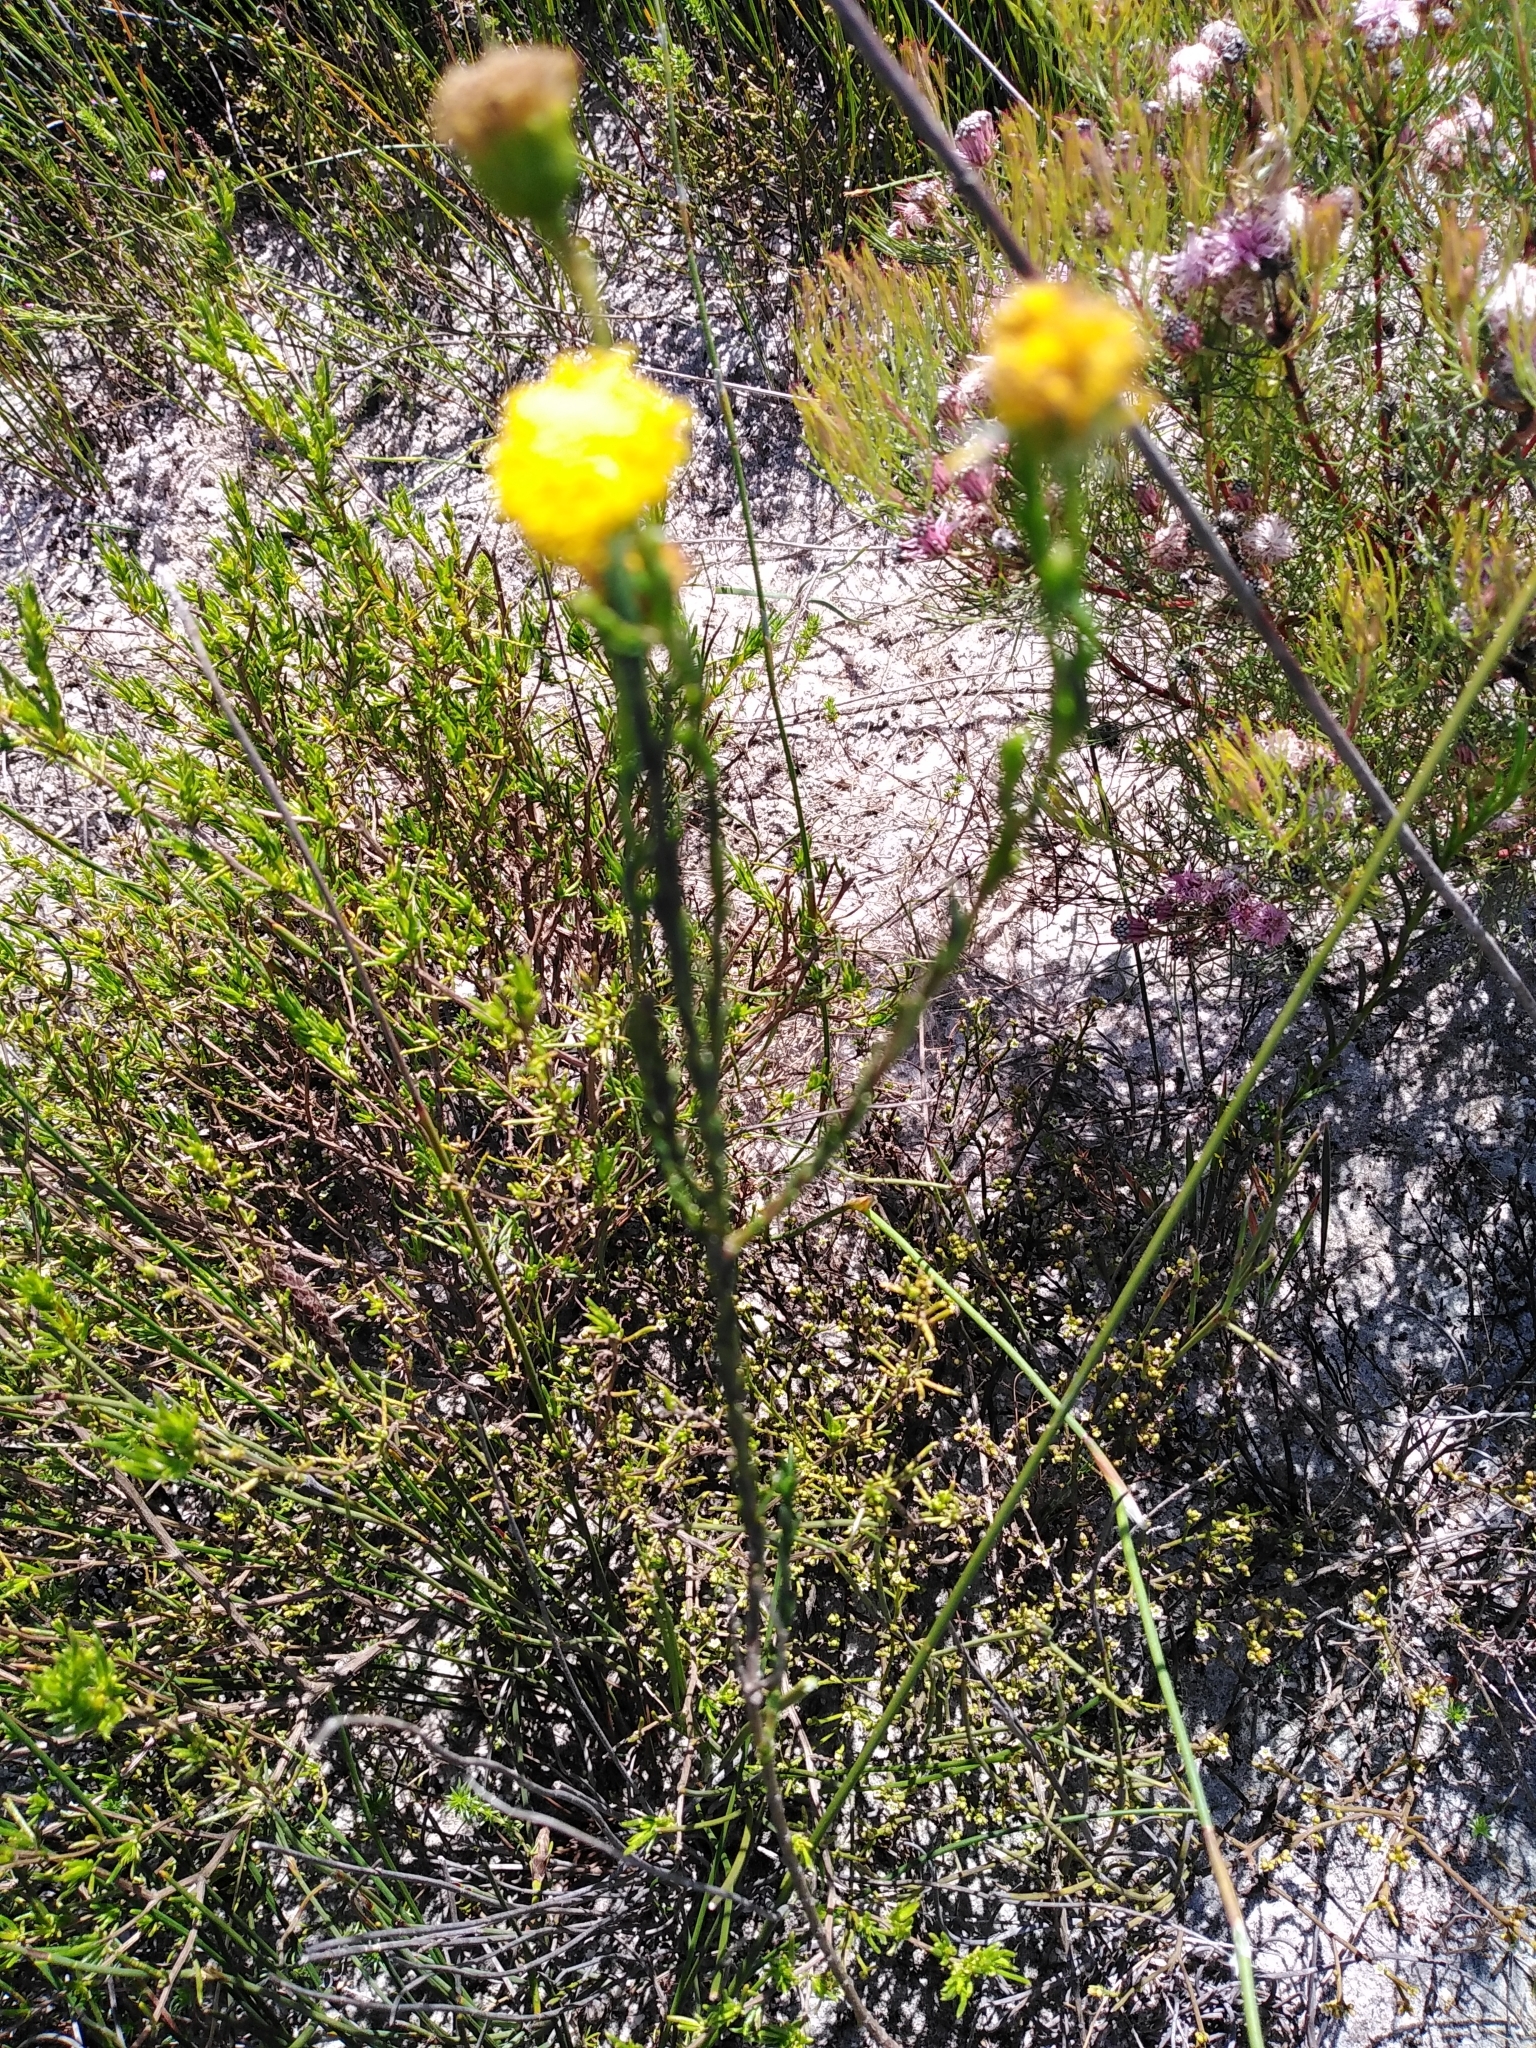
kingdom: Plantae
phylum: Tracheophyta
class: Magnoliopsida
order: Asterales
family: Asteraceae
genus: Chrysocoma
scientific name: Chrysocoma esterhuyseniae
